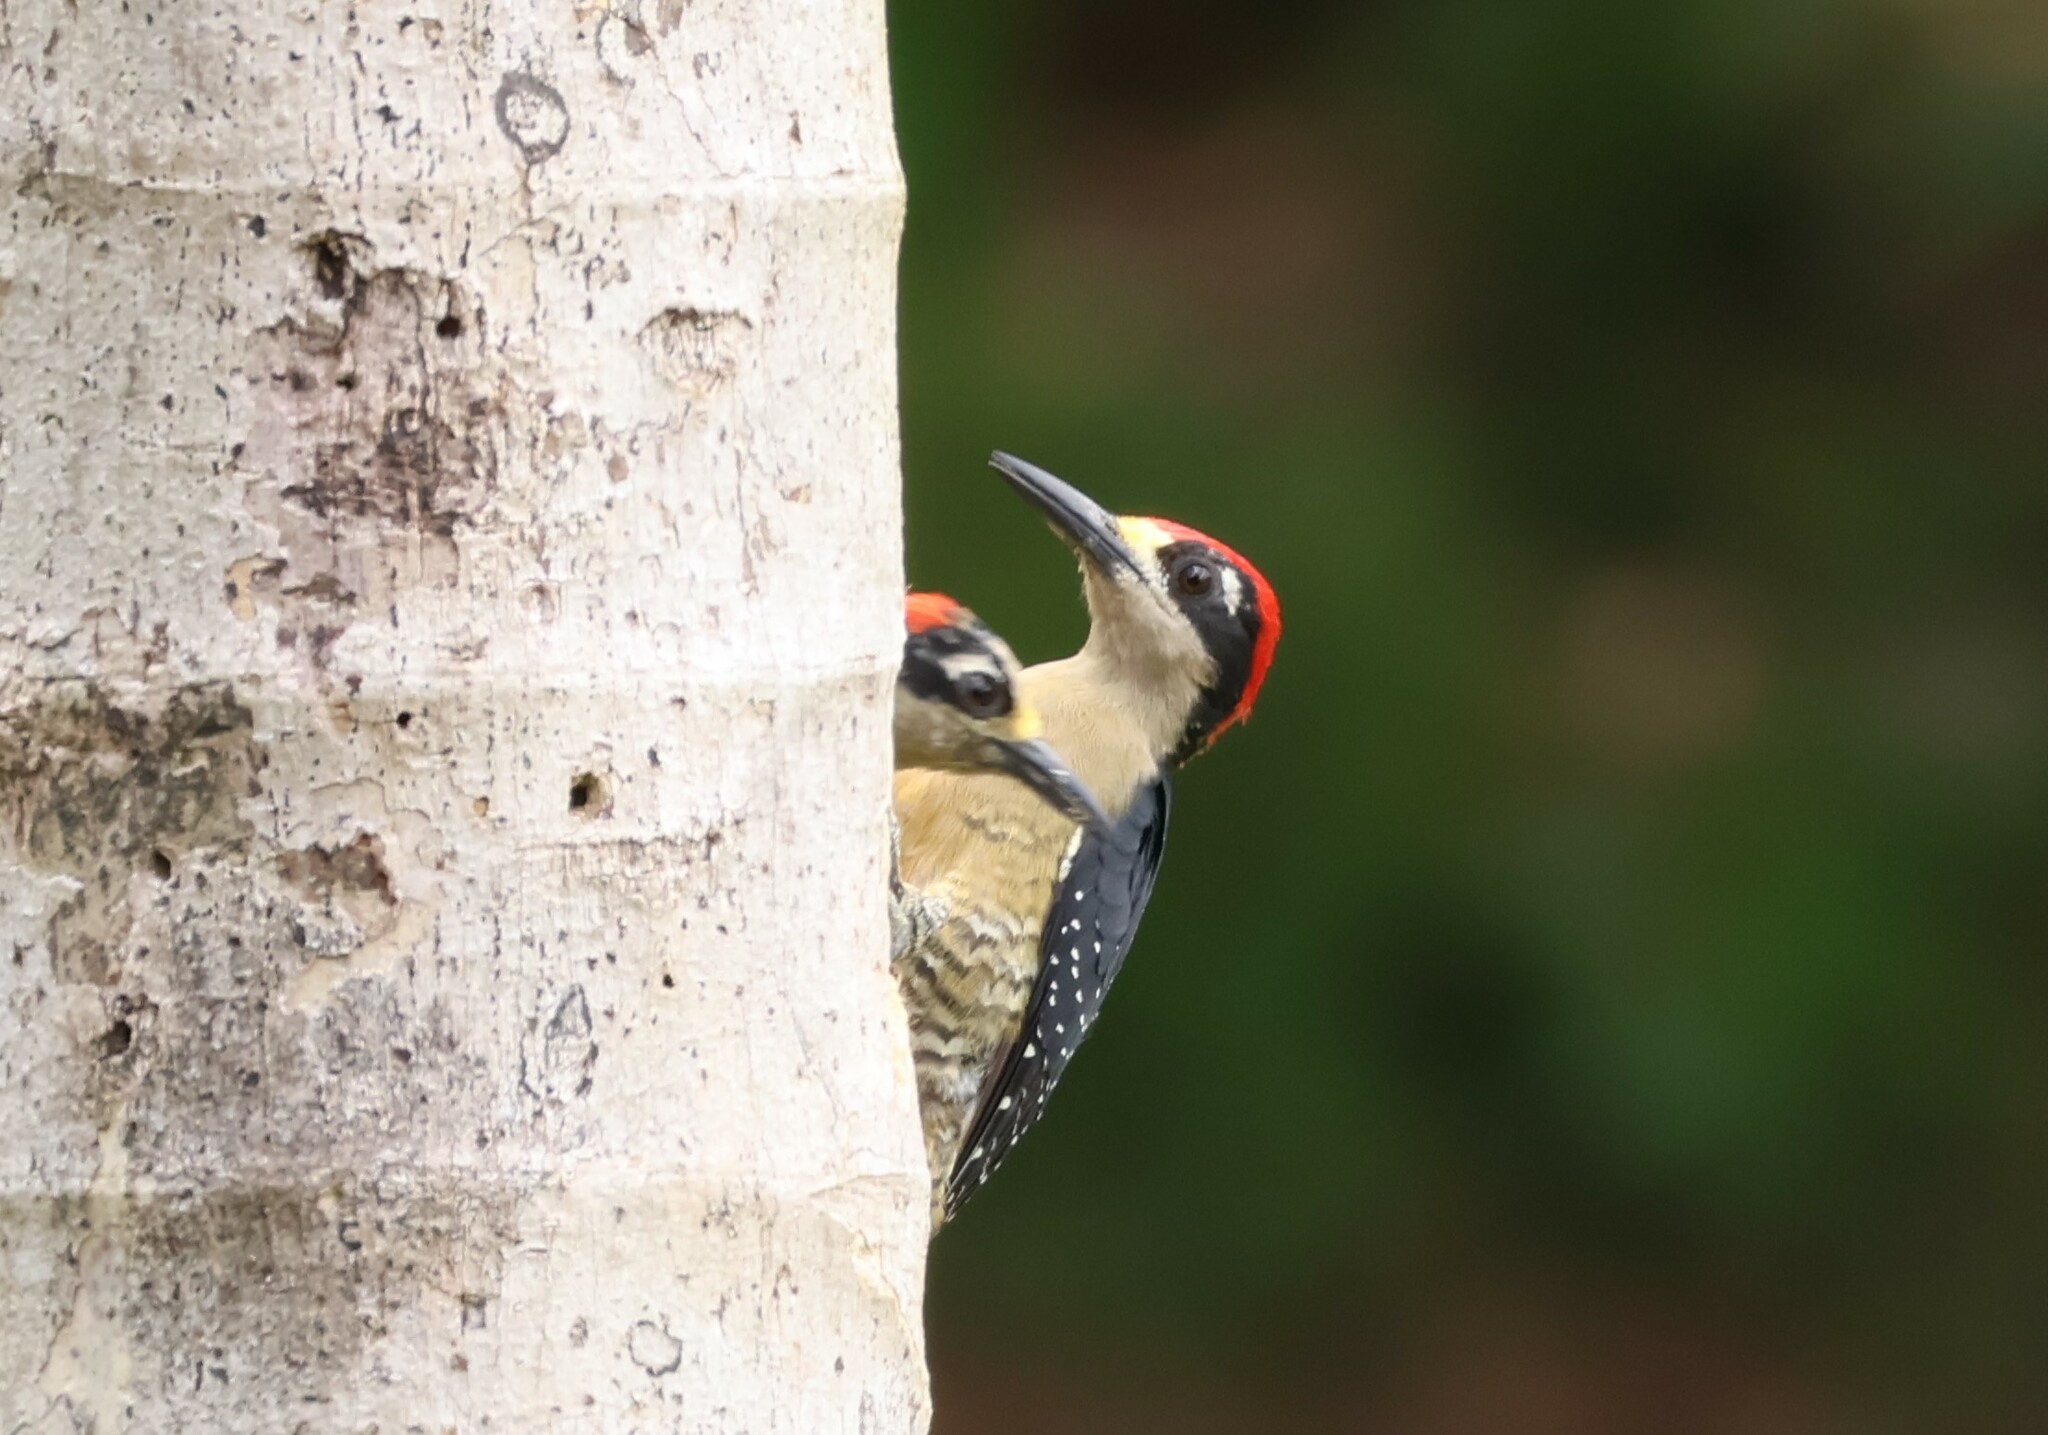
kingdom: Animalia
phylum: Chordata
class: Aves
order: Piciformes
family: Picidae
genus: Melanerpes
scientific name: Melanerpes pucherani
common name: Black-cheeked woodpecker
